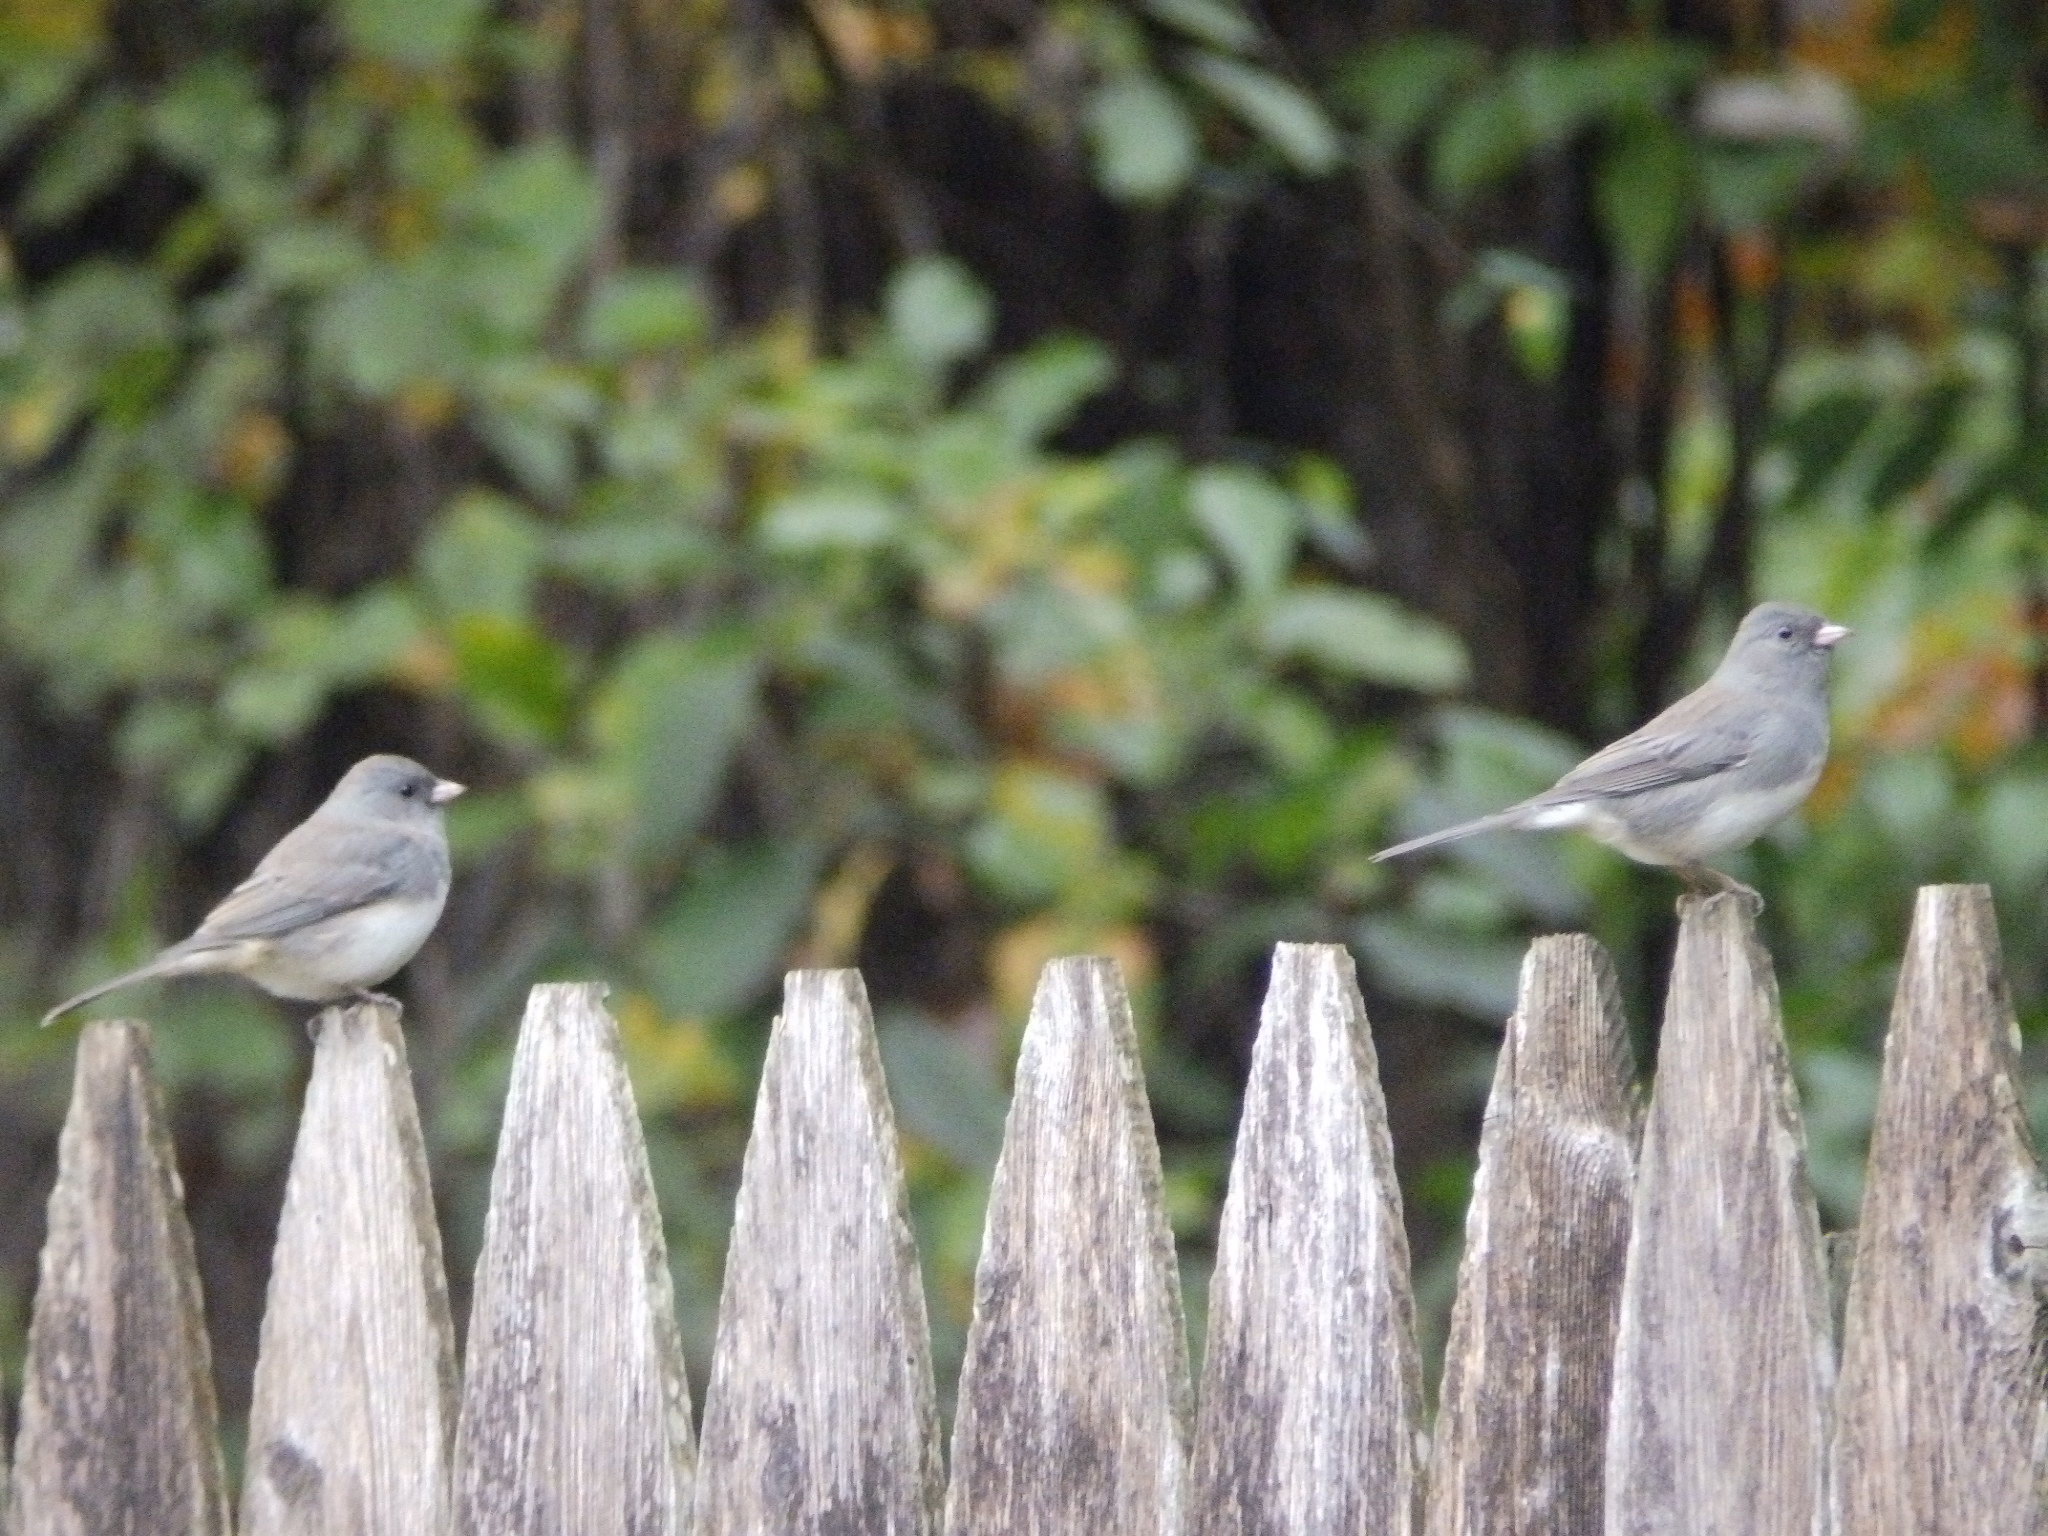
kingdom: Animalia
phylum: Chordata
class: Aves
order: Passeriformes
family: Passerellidae
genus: Junco
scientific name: Junco hyemalis
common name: Dark-eyed junco
